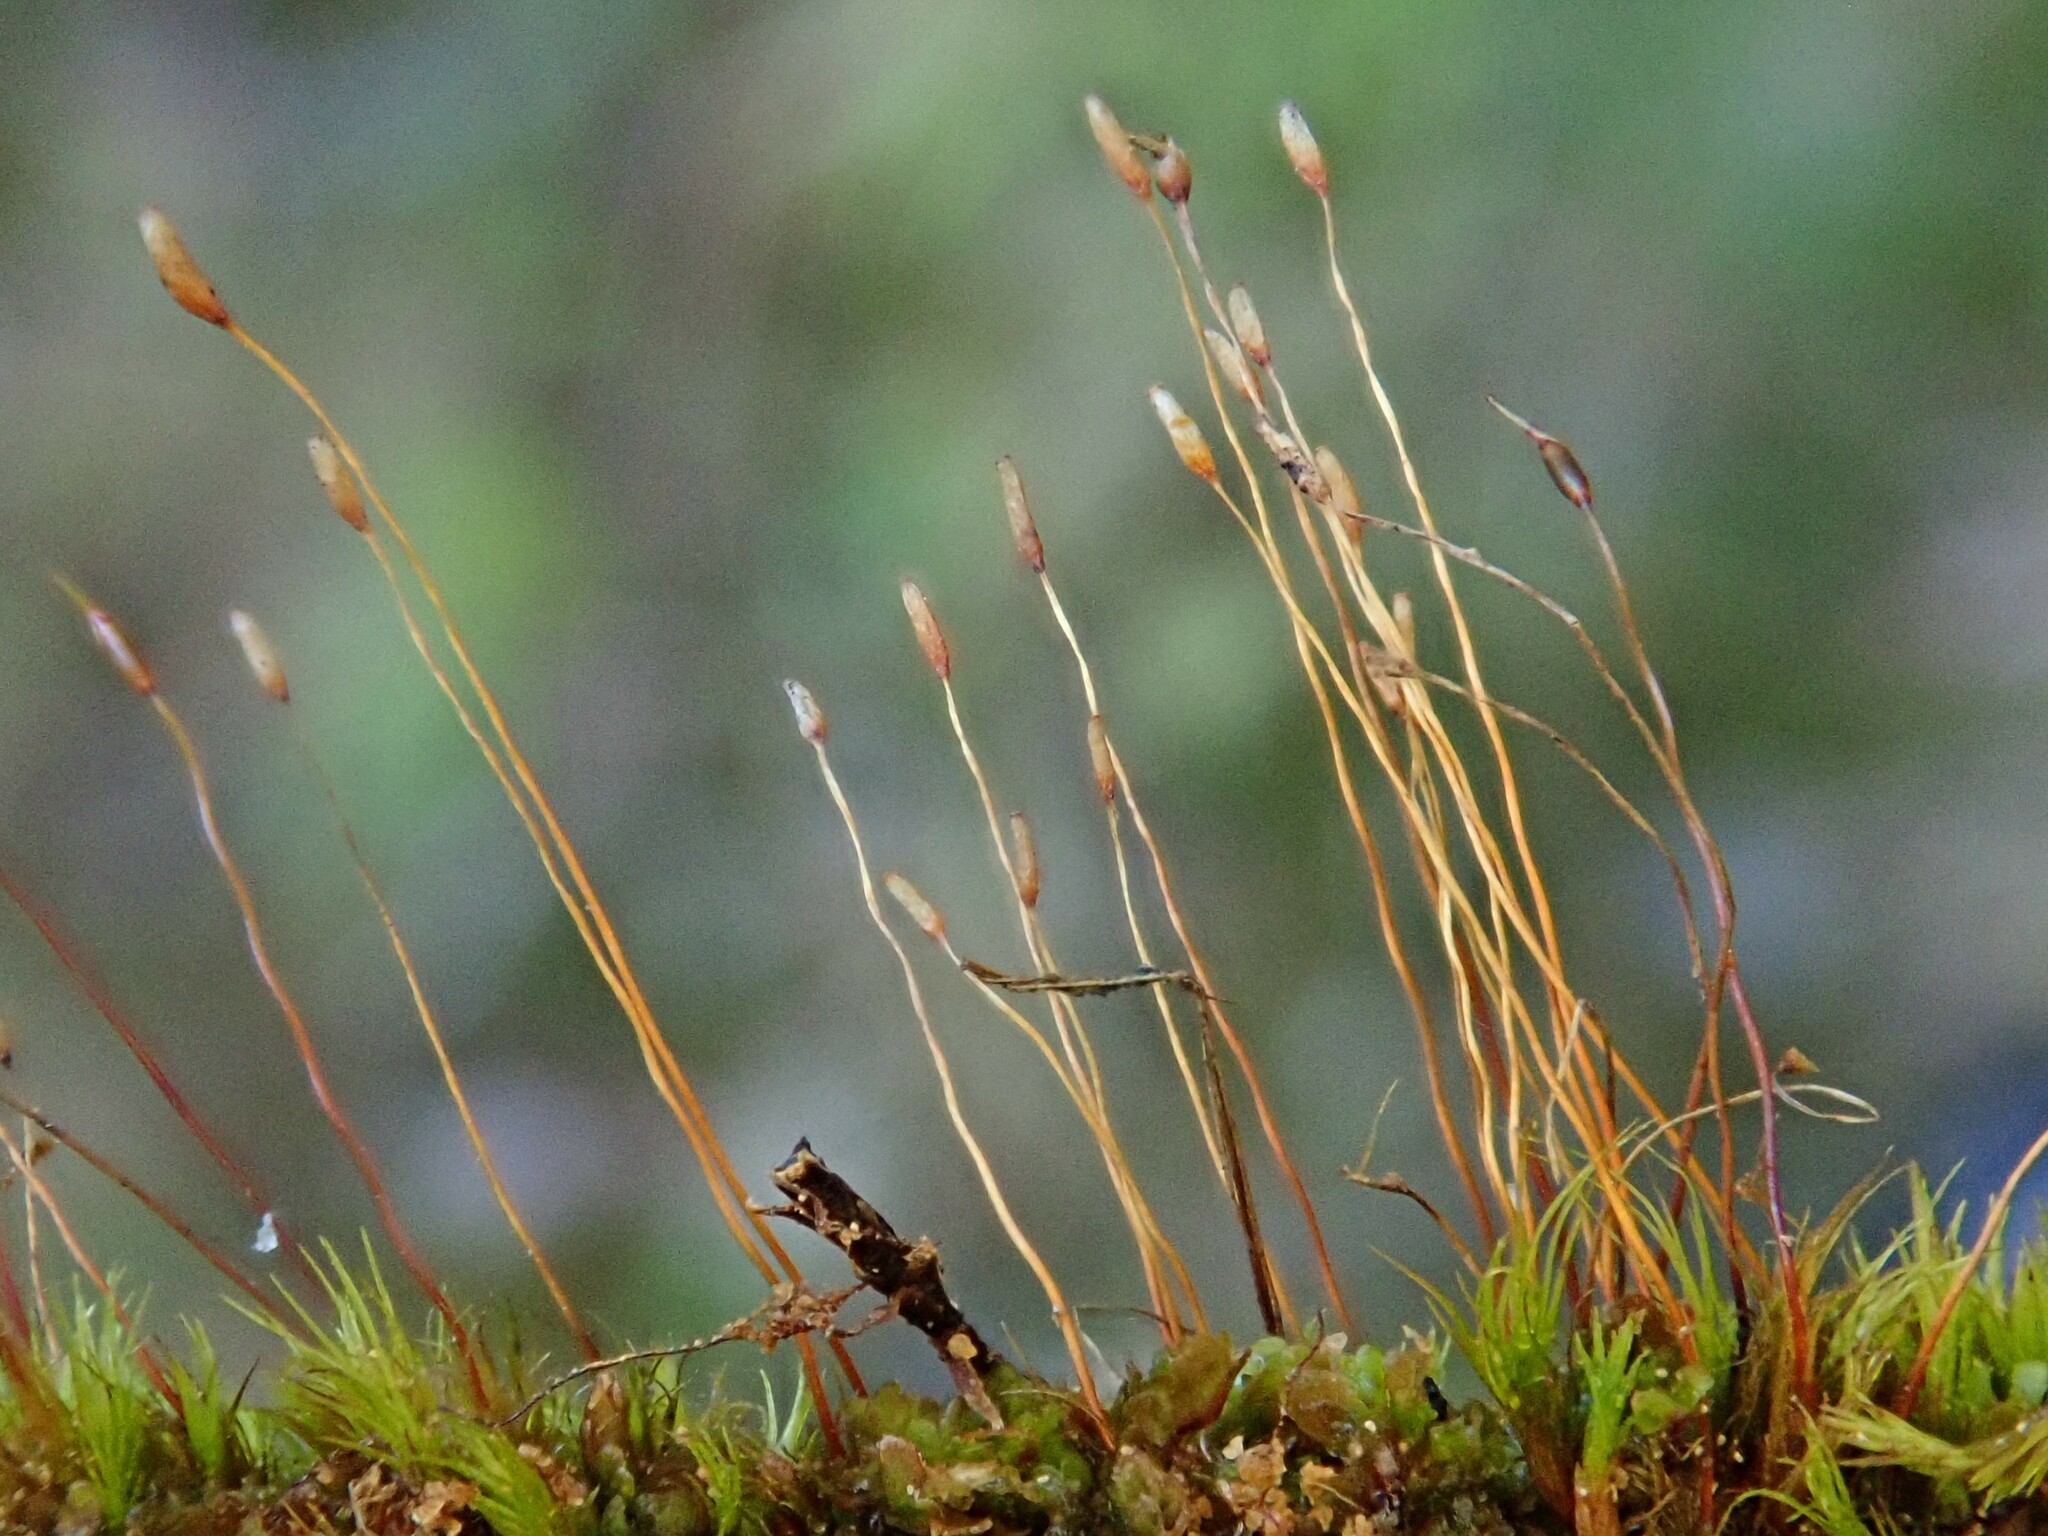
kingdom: Plantae
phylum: Bryophyta
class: Bryopsida
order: Dicranales
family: Ditrichaceae
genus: Ditrichum
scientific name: Ditrichum heteromallum
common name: Curve-leaved ditrichum
